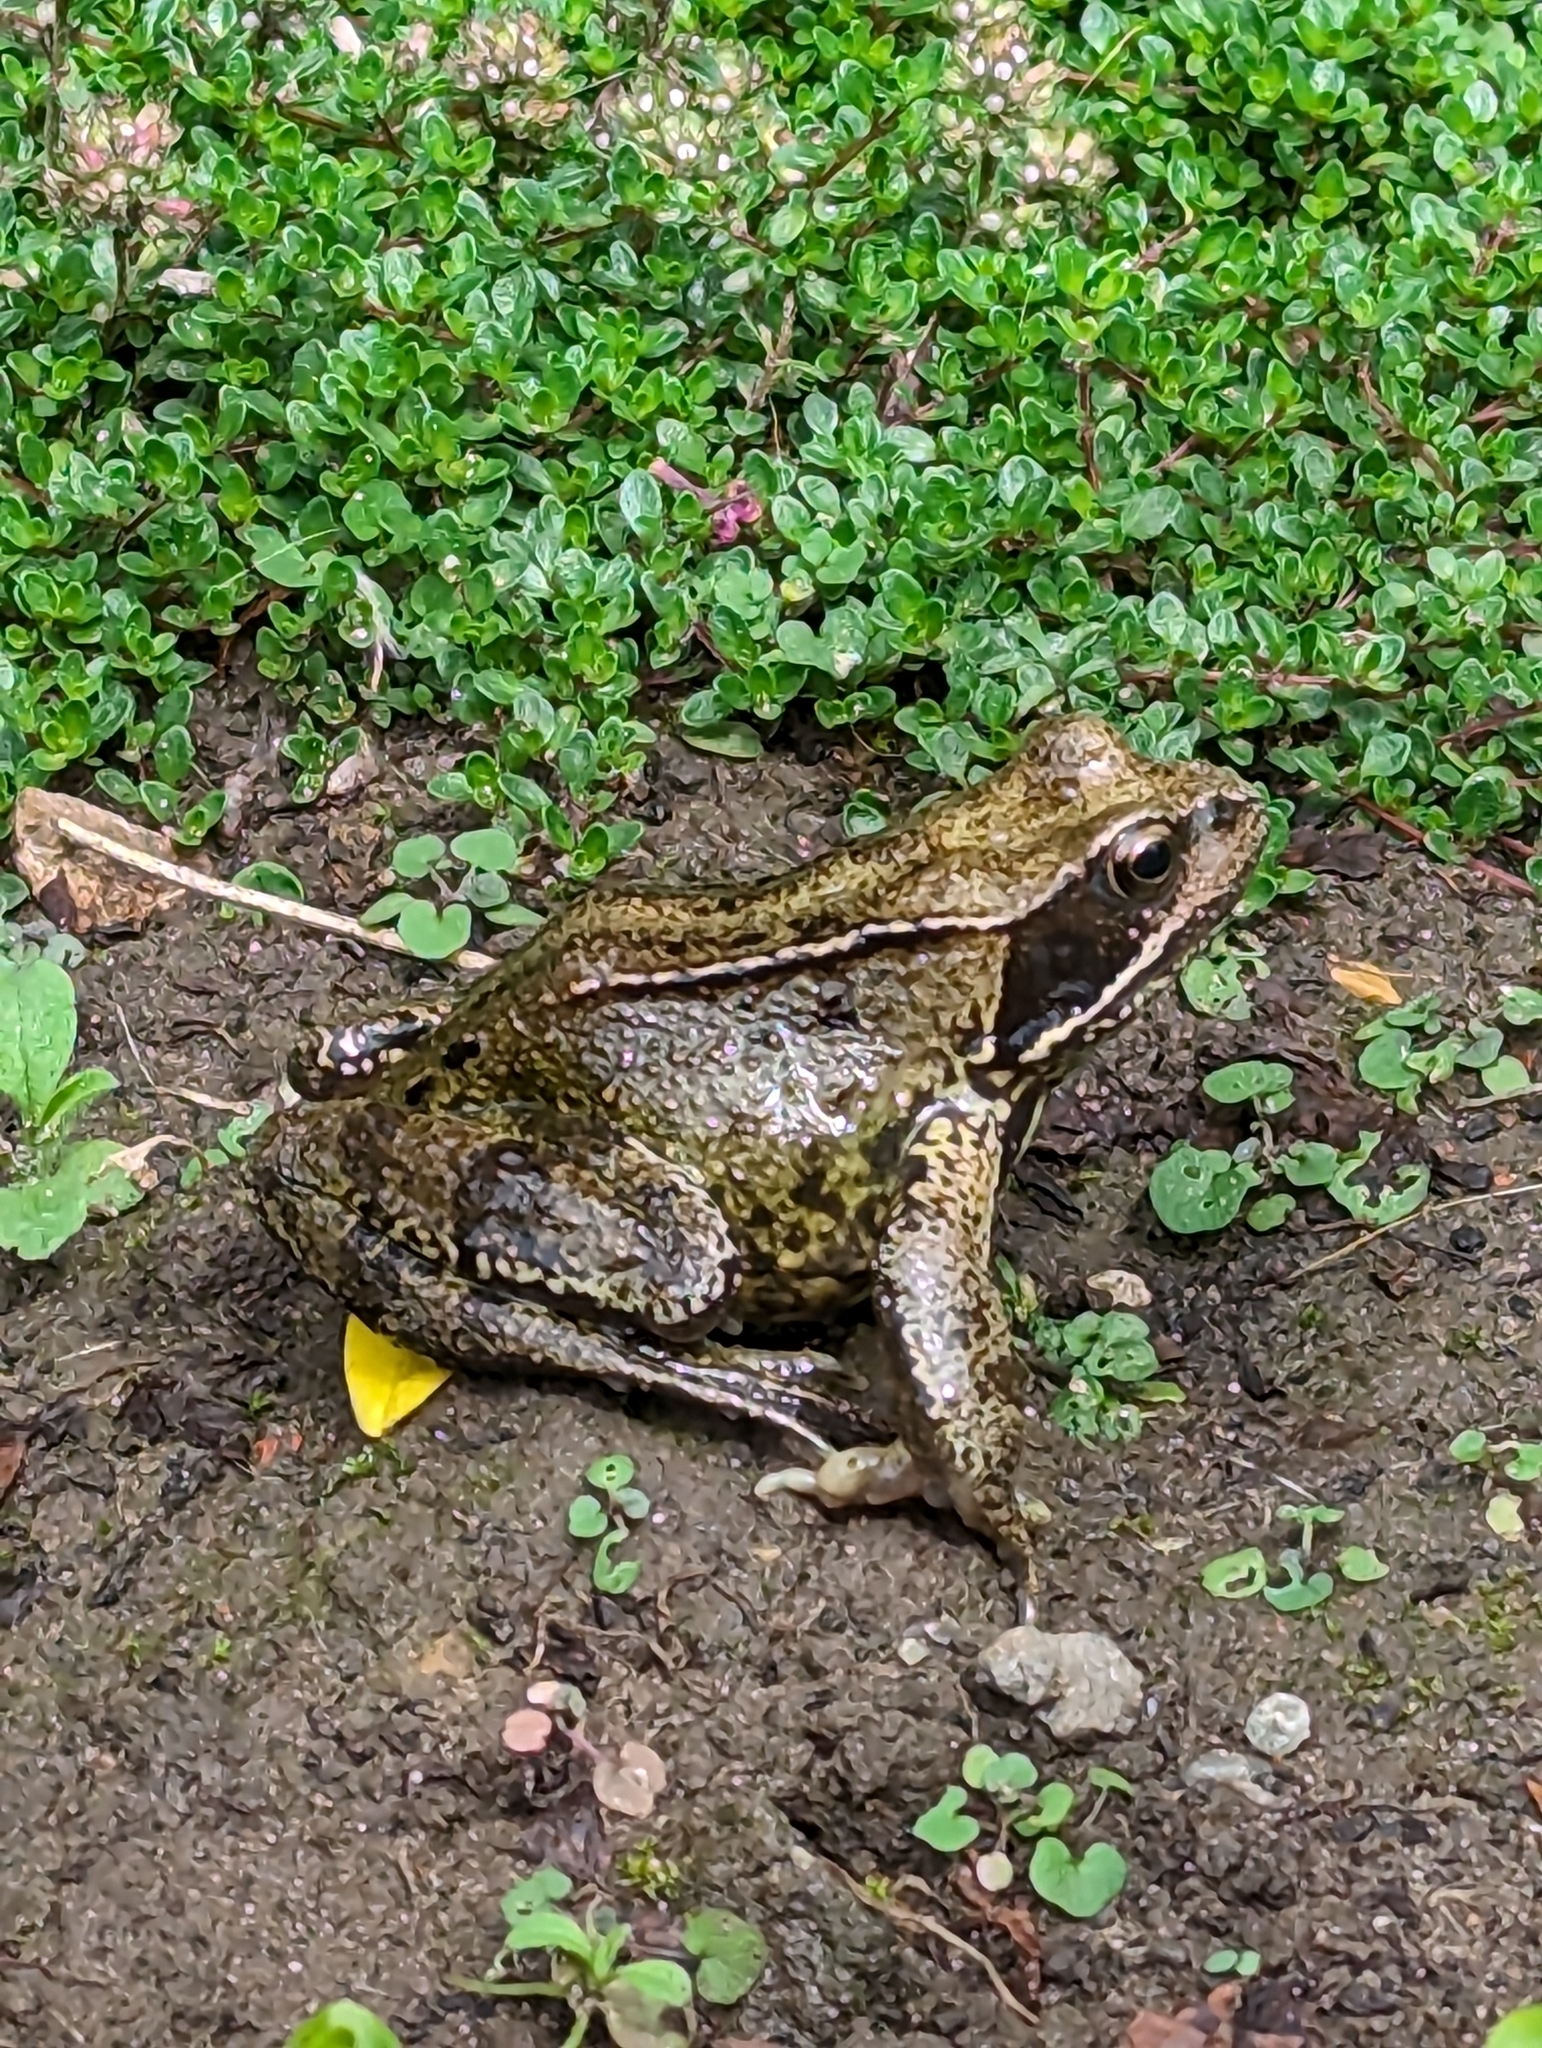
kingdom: Animalia
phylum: Chordata
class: Amphibia
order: Anura
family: Ranidae
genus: Rana
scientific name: Rana temporaria
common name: Common frog
